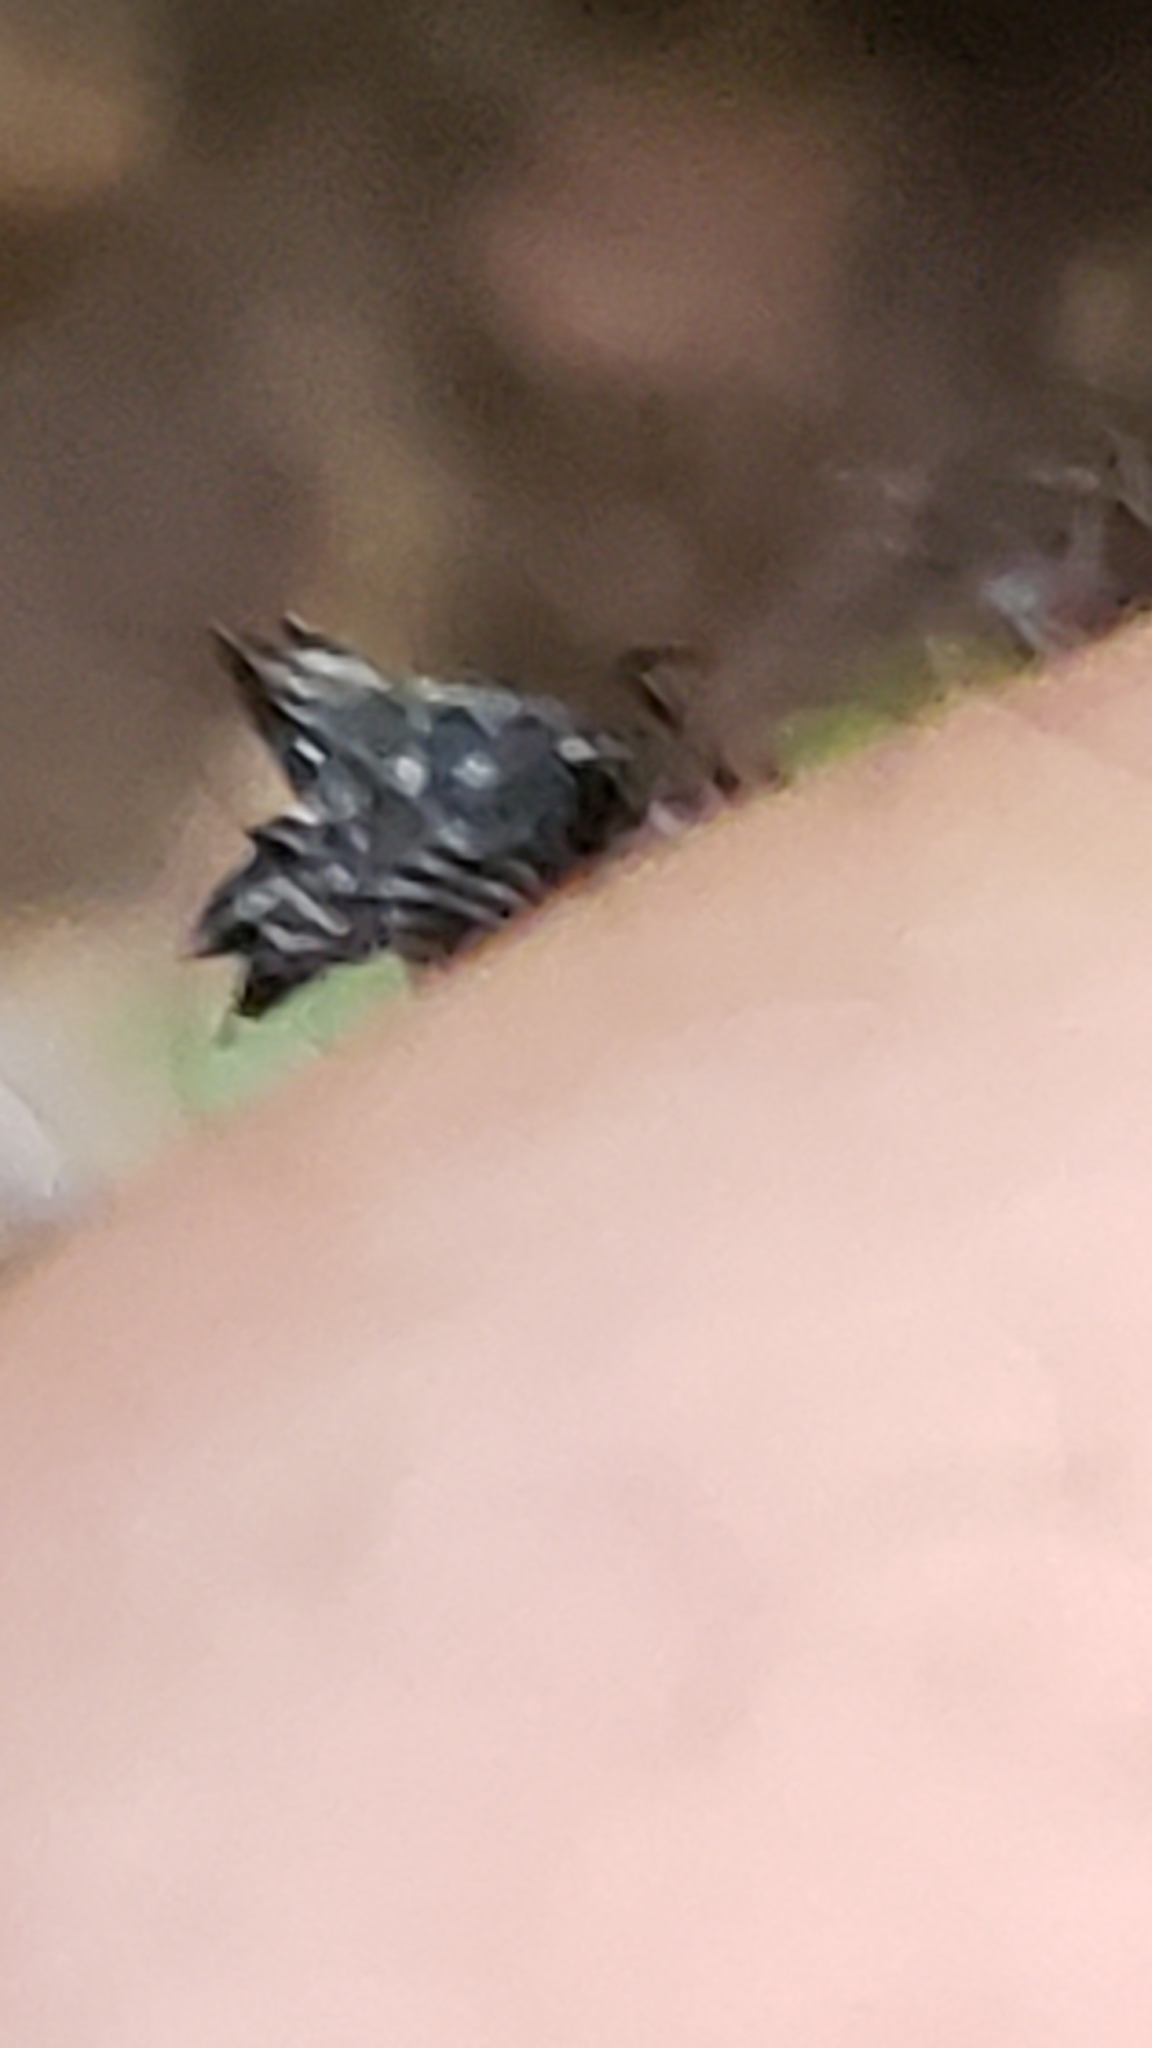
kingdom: Animalia
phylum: Arthropoda
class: Arachnida
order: Araneae
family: Araneidae
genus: Micrathena
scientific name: Micrathena gracilis
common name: Orb weavers
